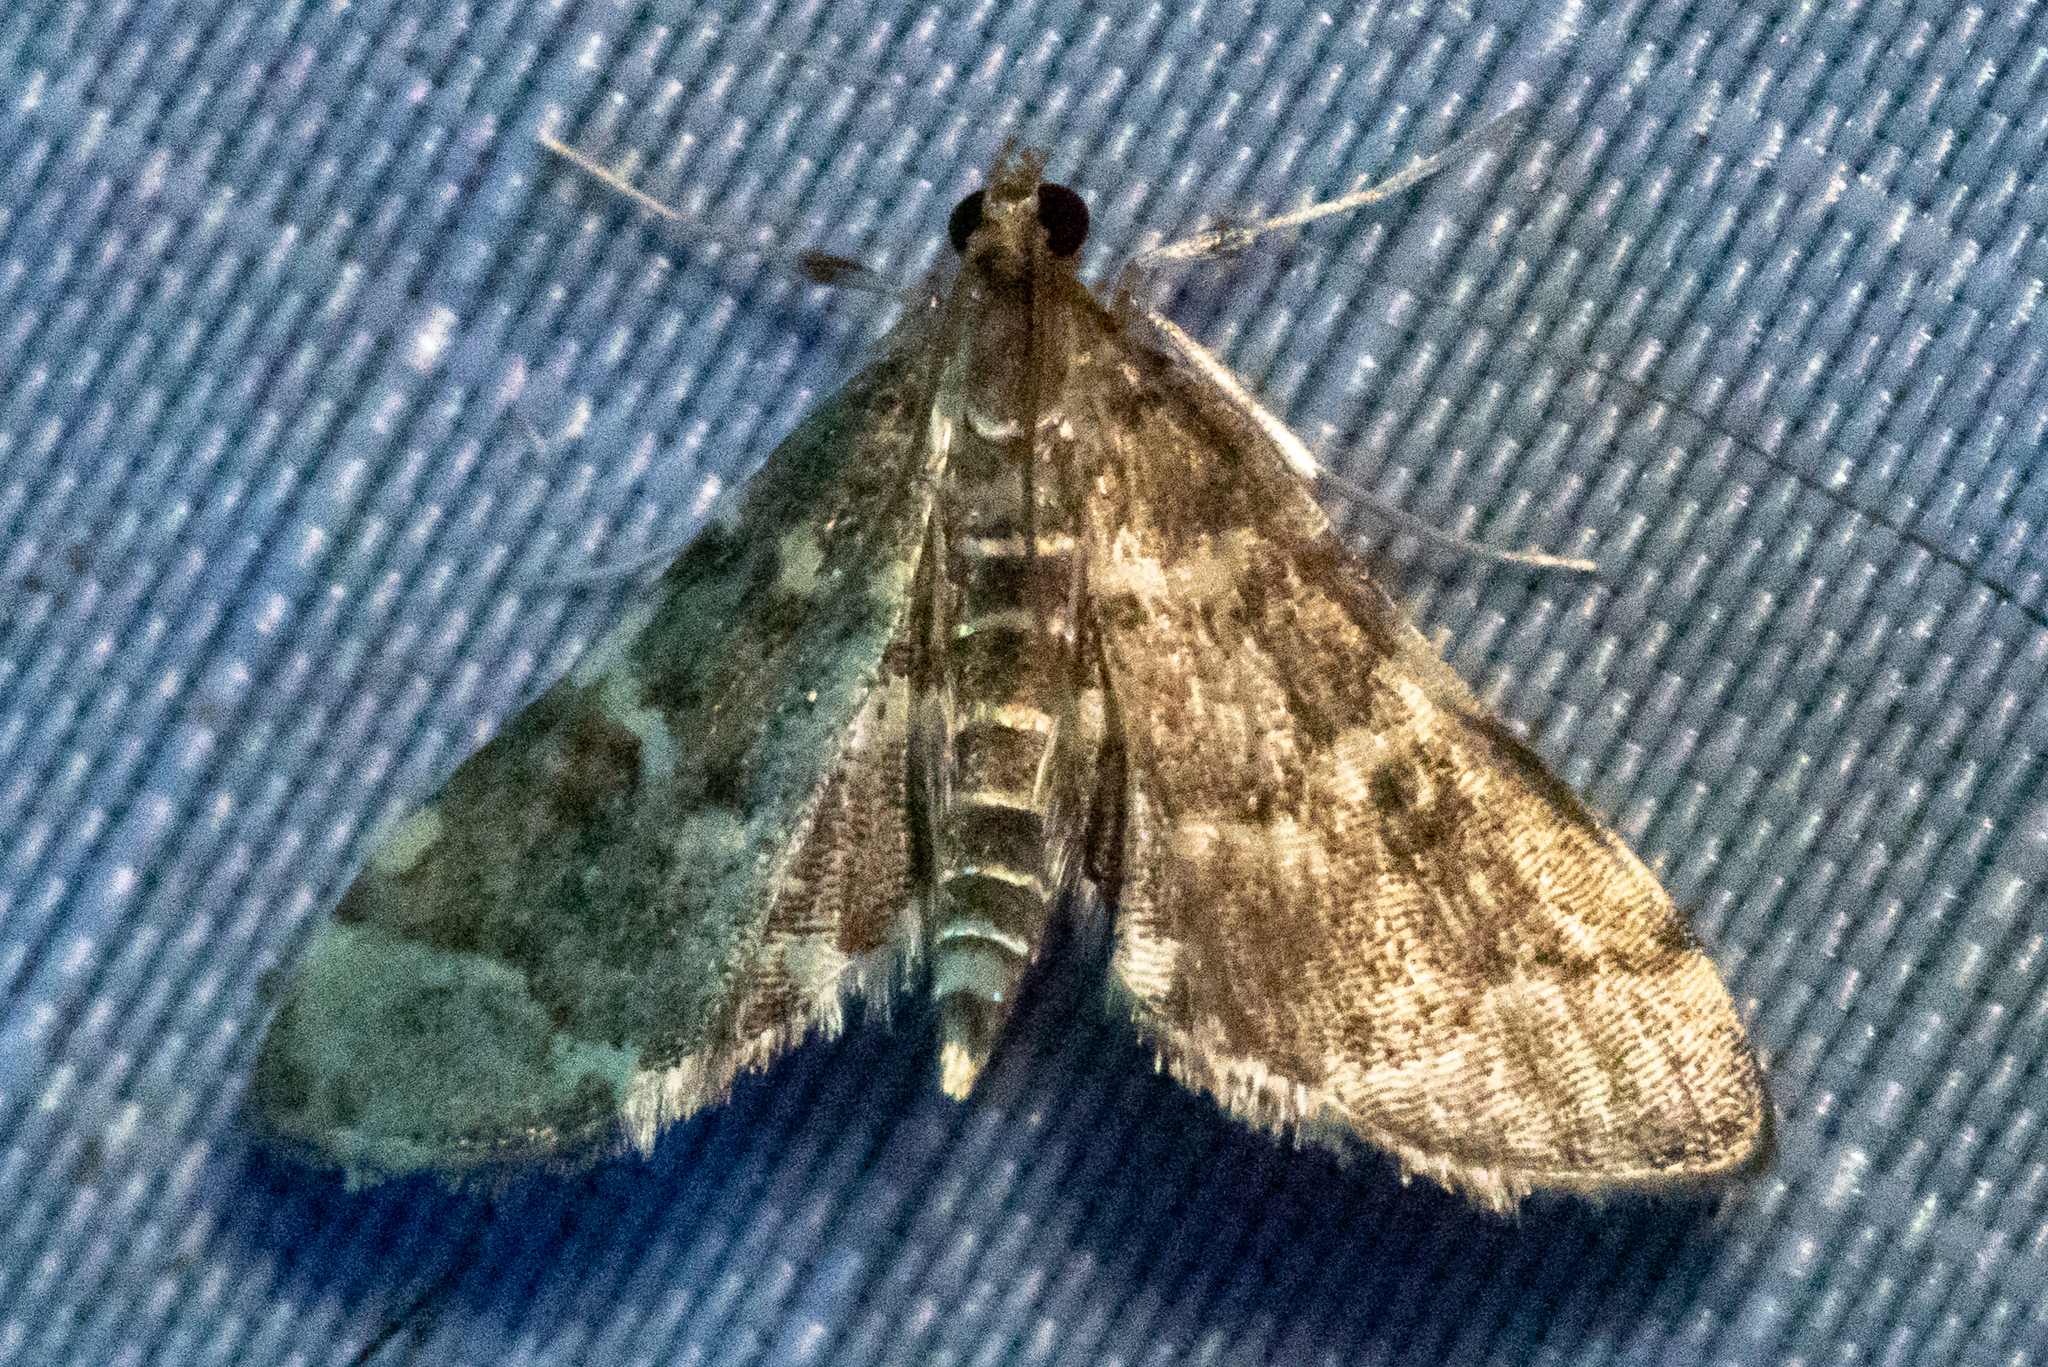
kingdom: Animalia
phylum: Arthropoda
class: Insecta
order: Lepidoptera
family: Crambidae
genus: Anageshna
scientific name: Anageshna primordialis
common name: Yellow-spotted webworm moth
